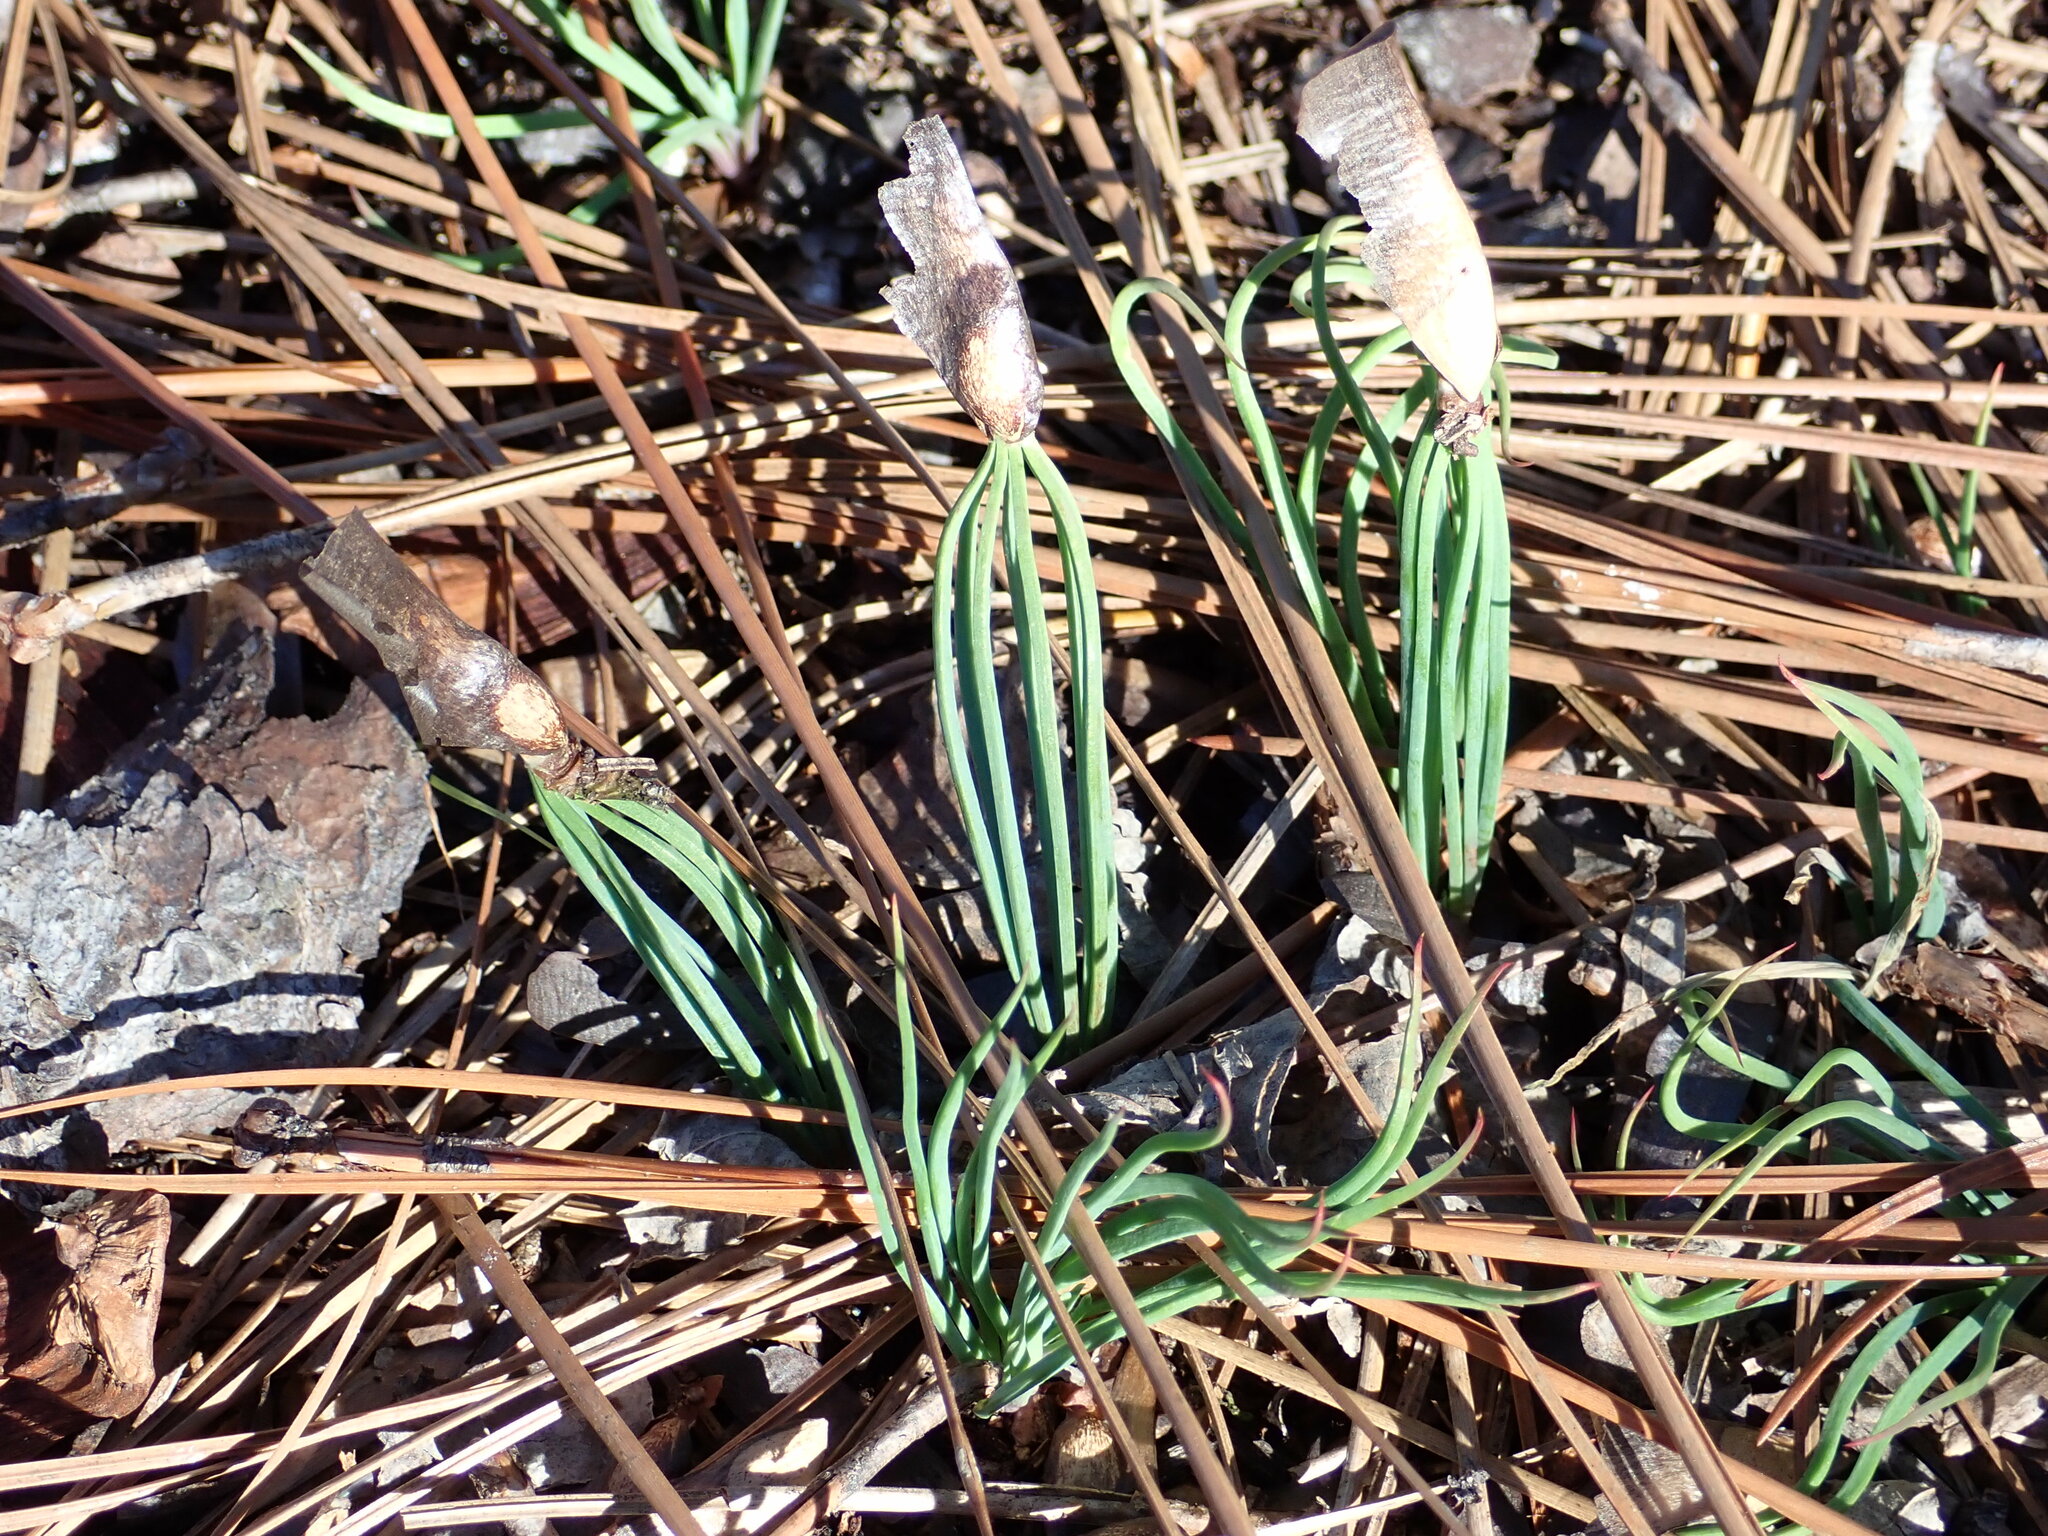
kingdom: Plantae
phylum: Tracheophyta
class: Pinopsida
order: Pinales
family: Pinaceae
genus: Pinus
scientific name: Pinus palustris
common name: Longleaf pine
